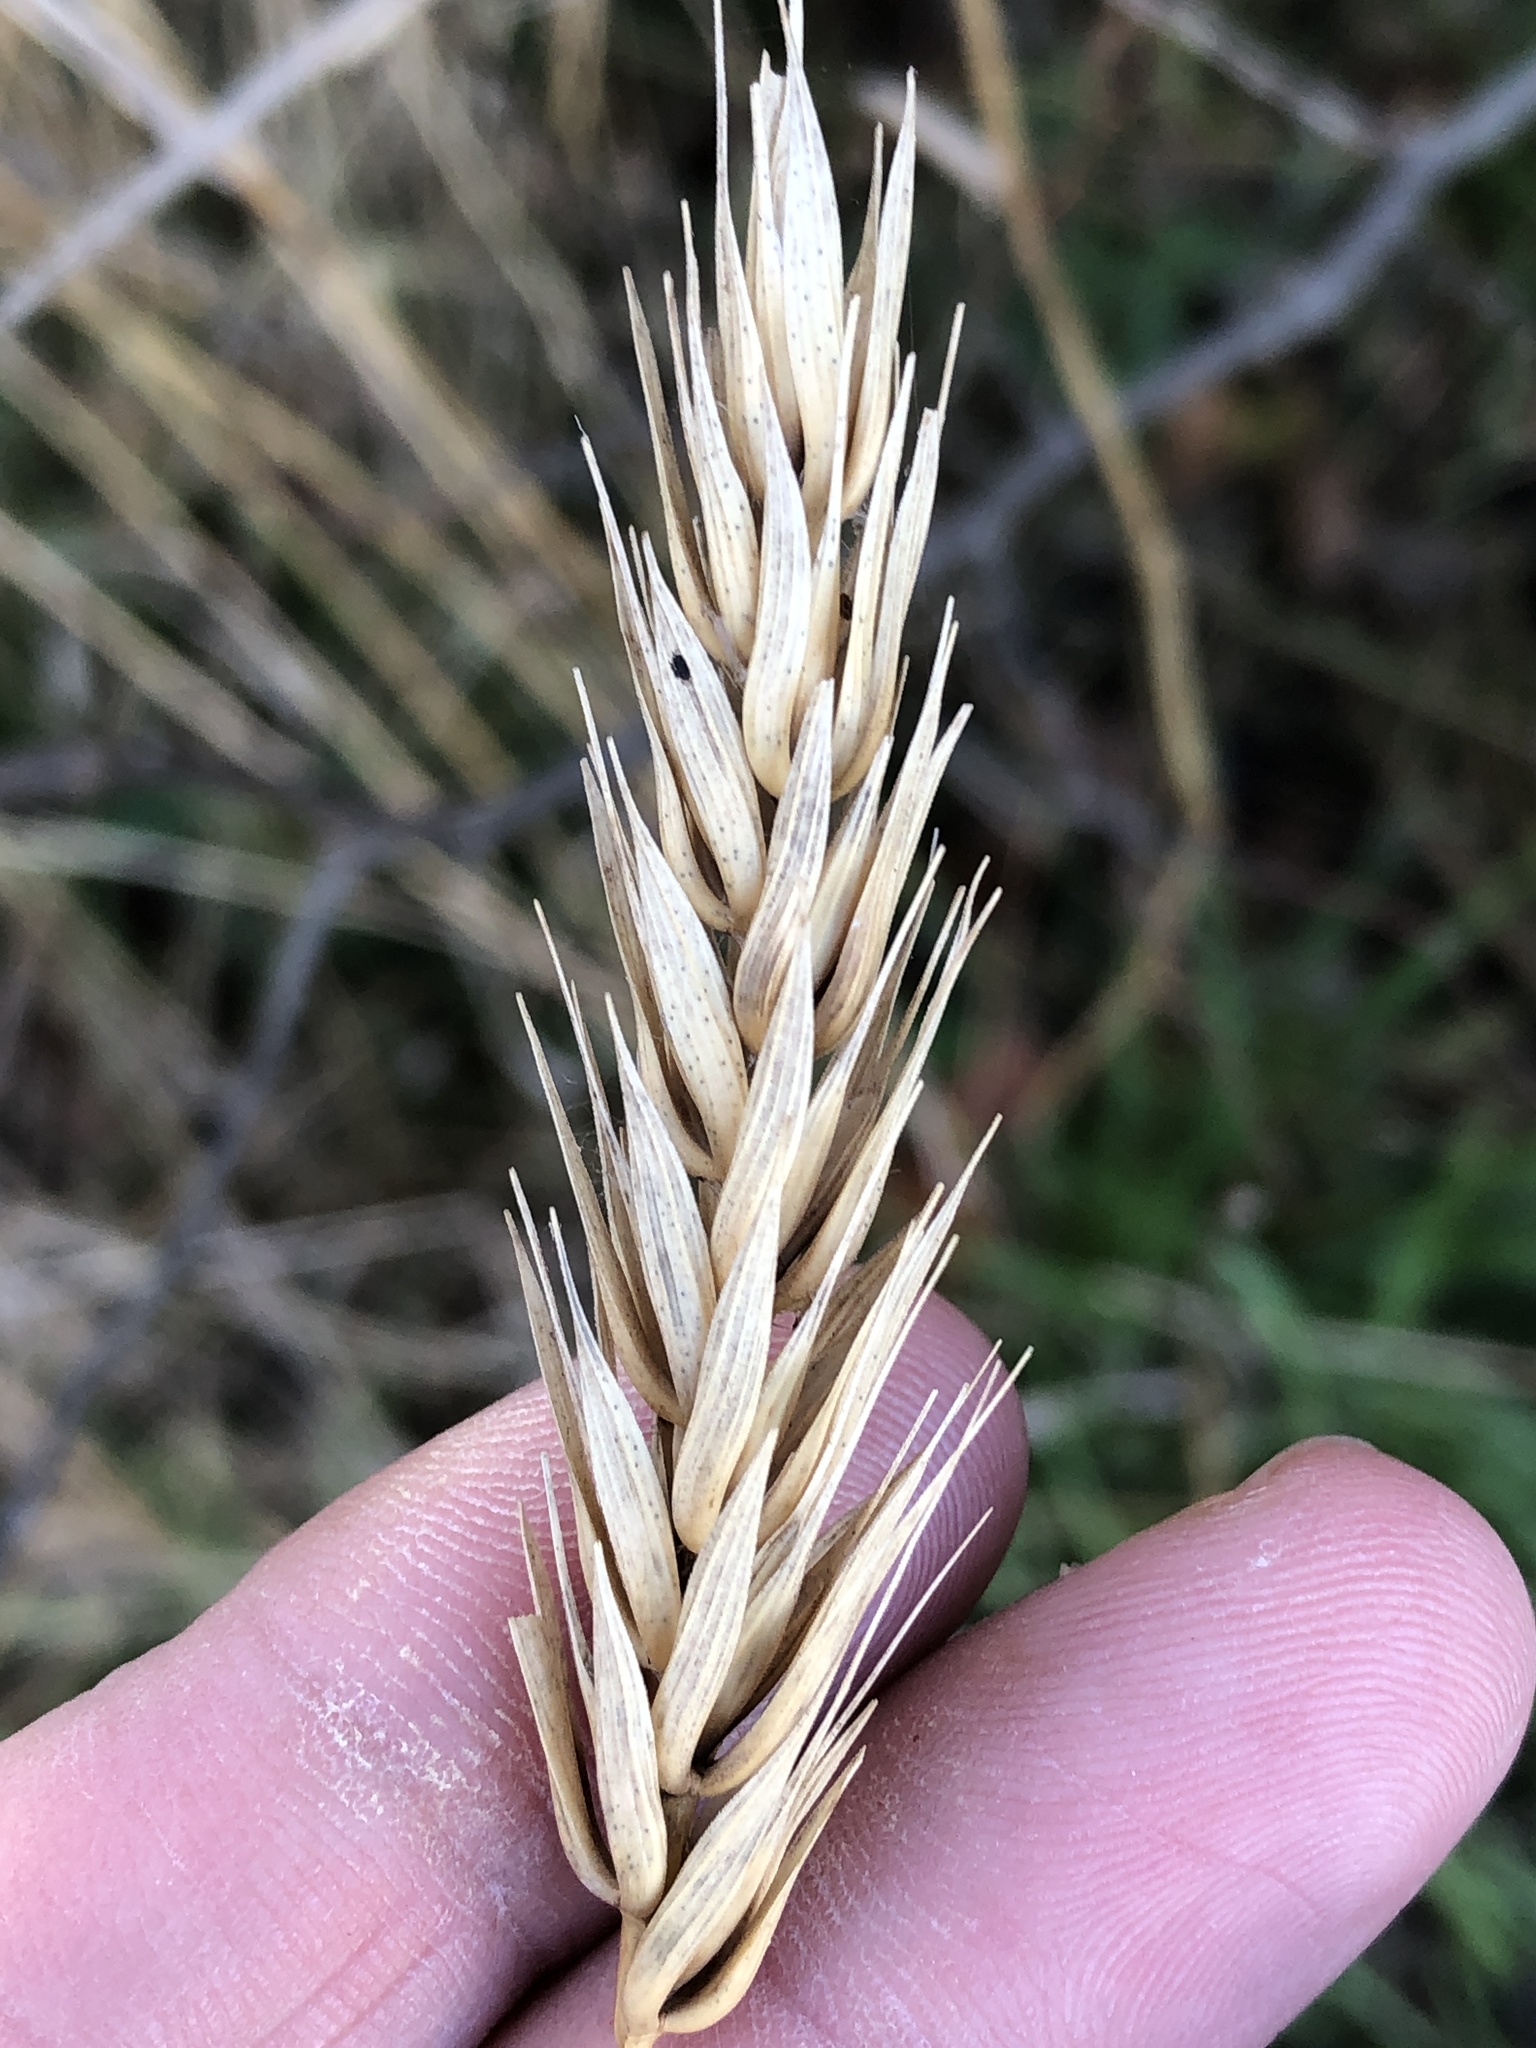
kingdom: Plantae
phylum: Tracheophyta
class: Liliopsida
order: Poales
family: Poaceae
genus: Elymus
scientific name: Elymus virginicus
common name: Common eastern wildrye
